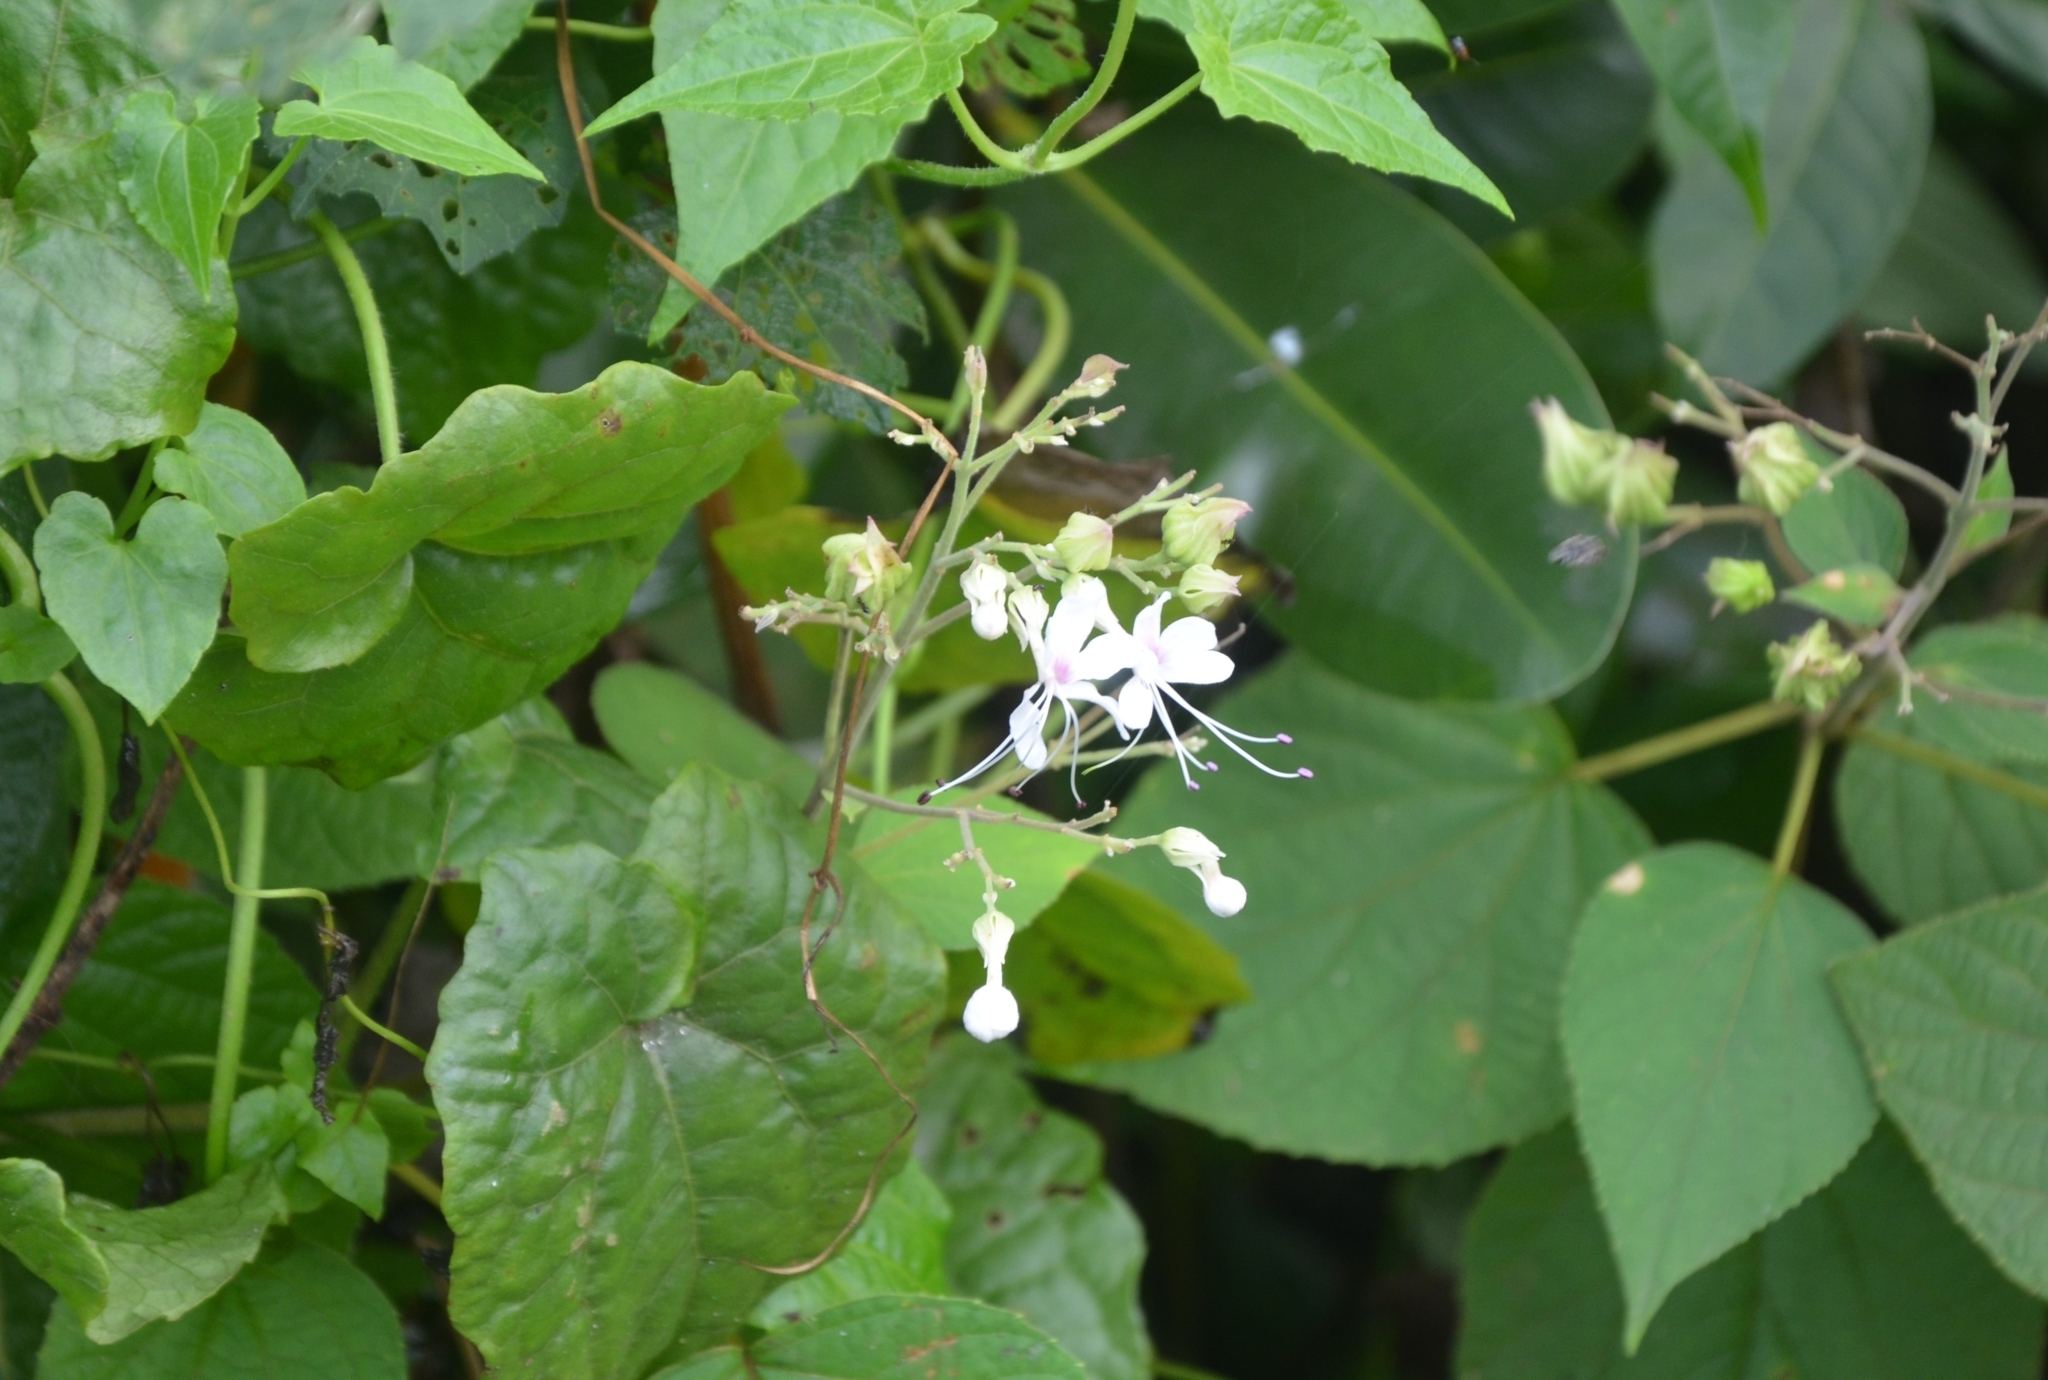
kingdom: Plantae
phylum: Tracheophyta
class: Magnoliopsida
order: Lamiales
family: Lamiaceae
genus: Clerodendrum
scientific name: Clerodendrum infortunatum
